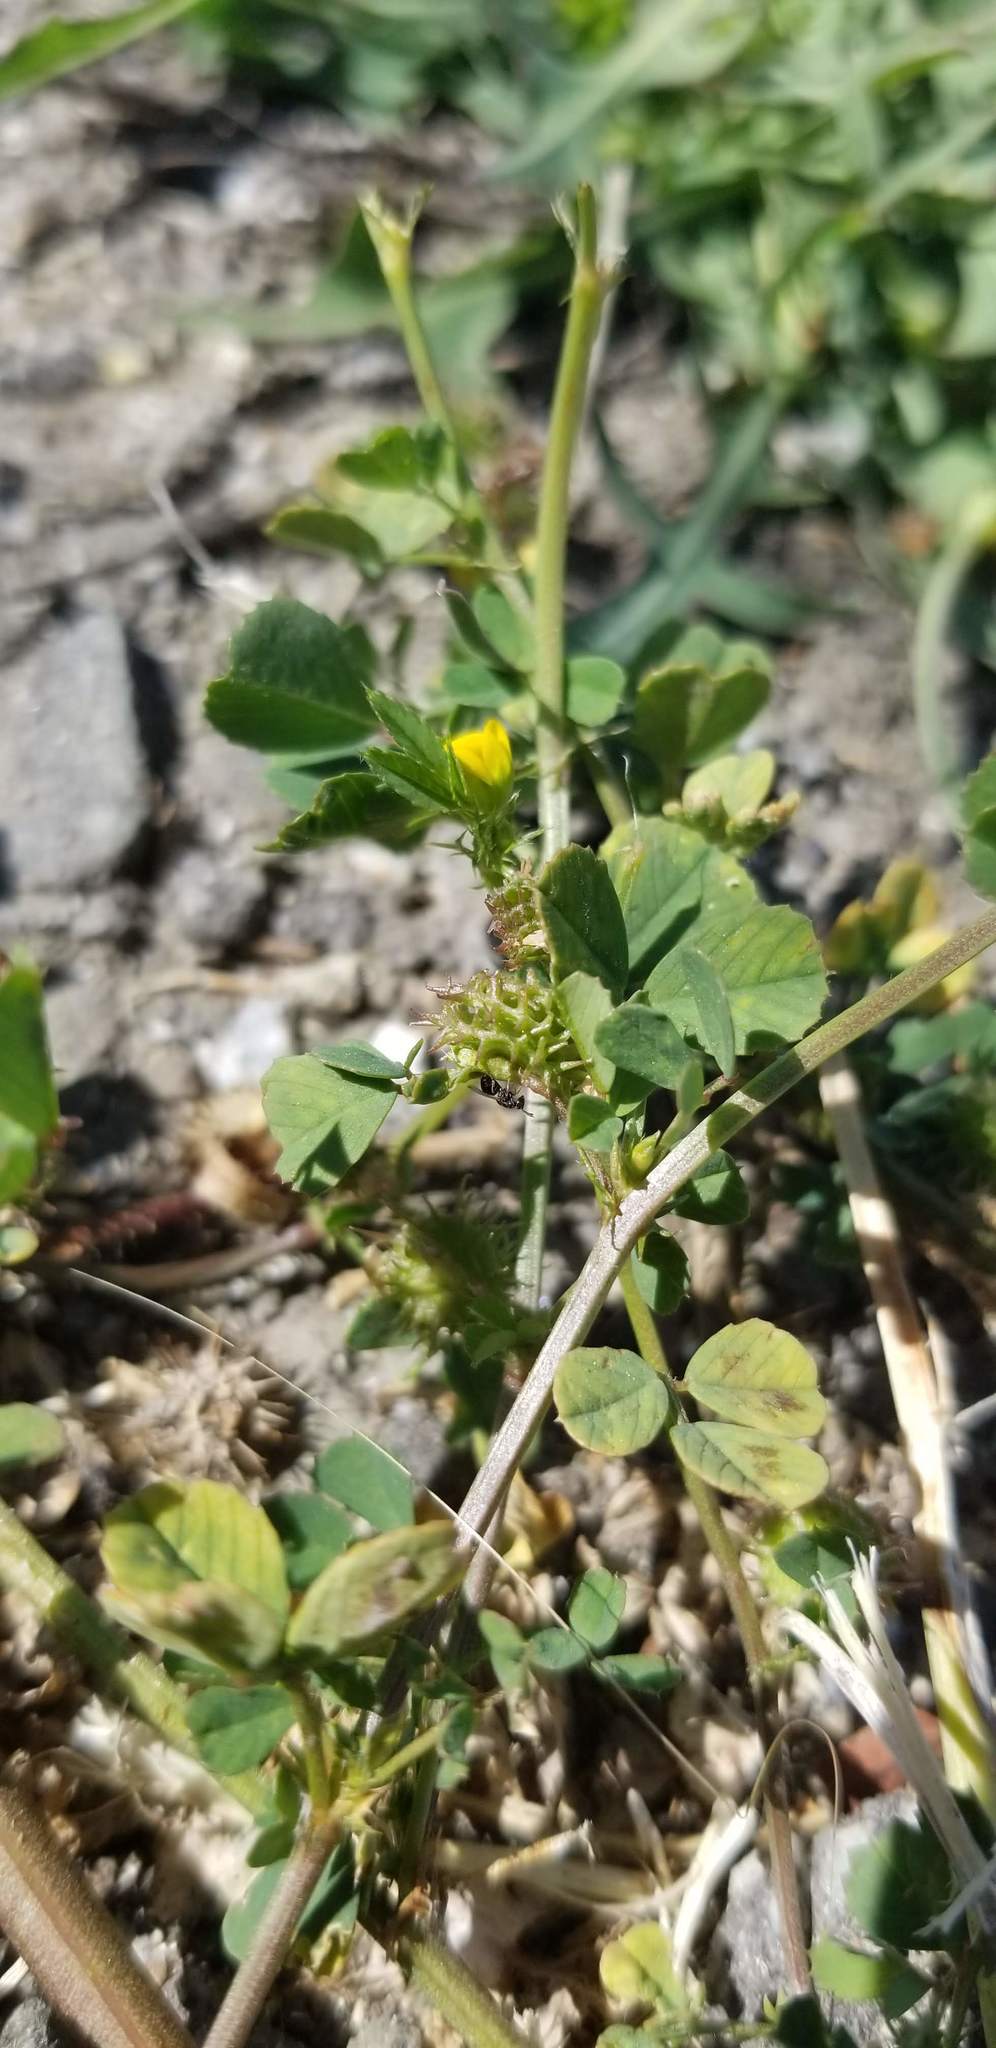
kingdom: Plantae
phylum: Tracheophyta
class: Magnoliopsida
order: Fabales
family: Fabaceae
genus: Medicago
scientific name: Medicago polymorpha
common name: Burclover
